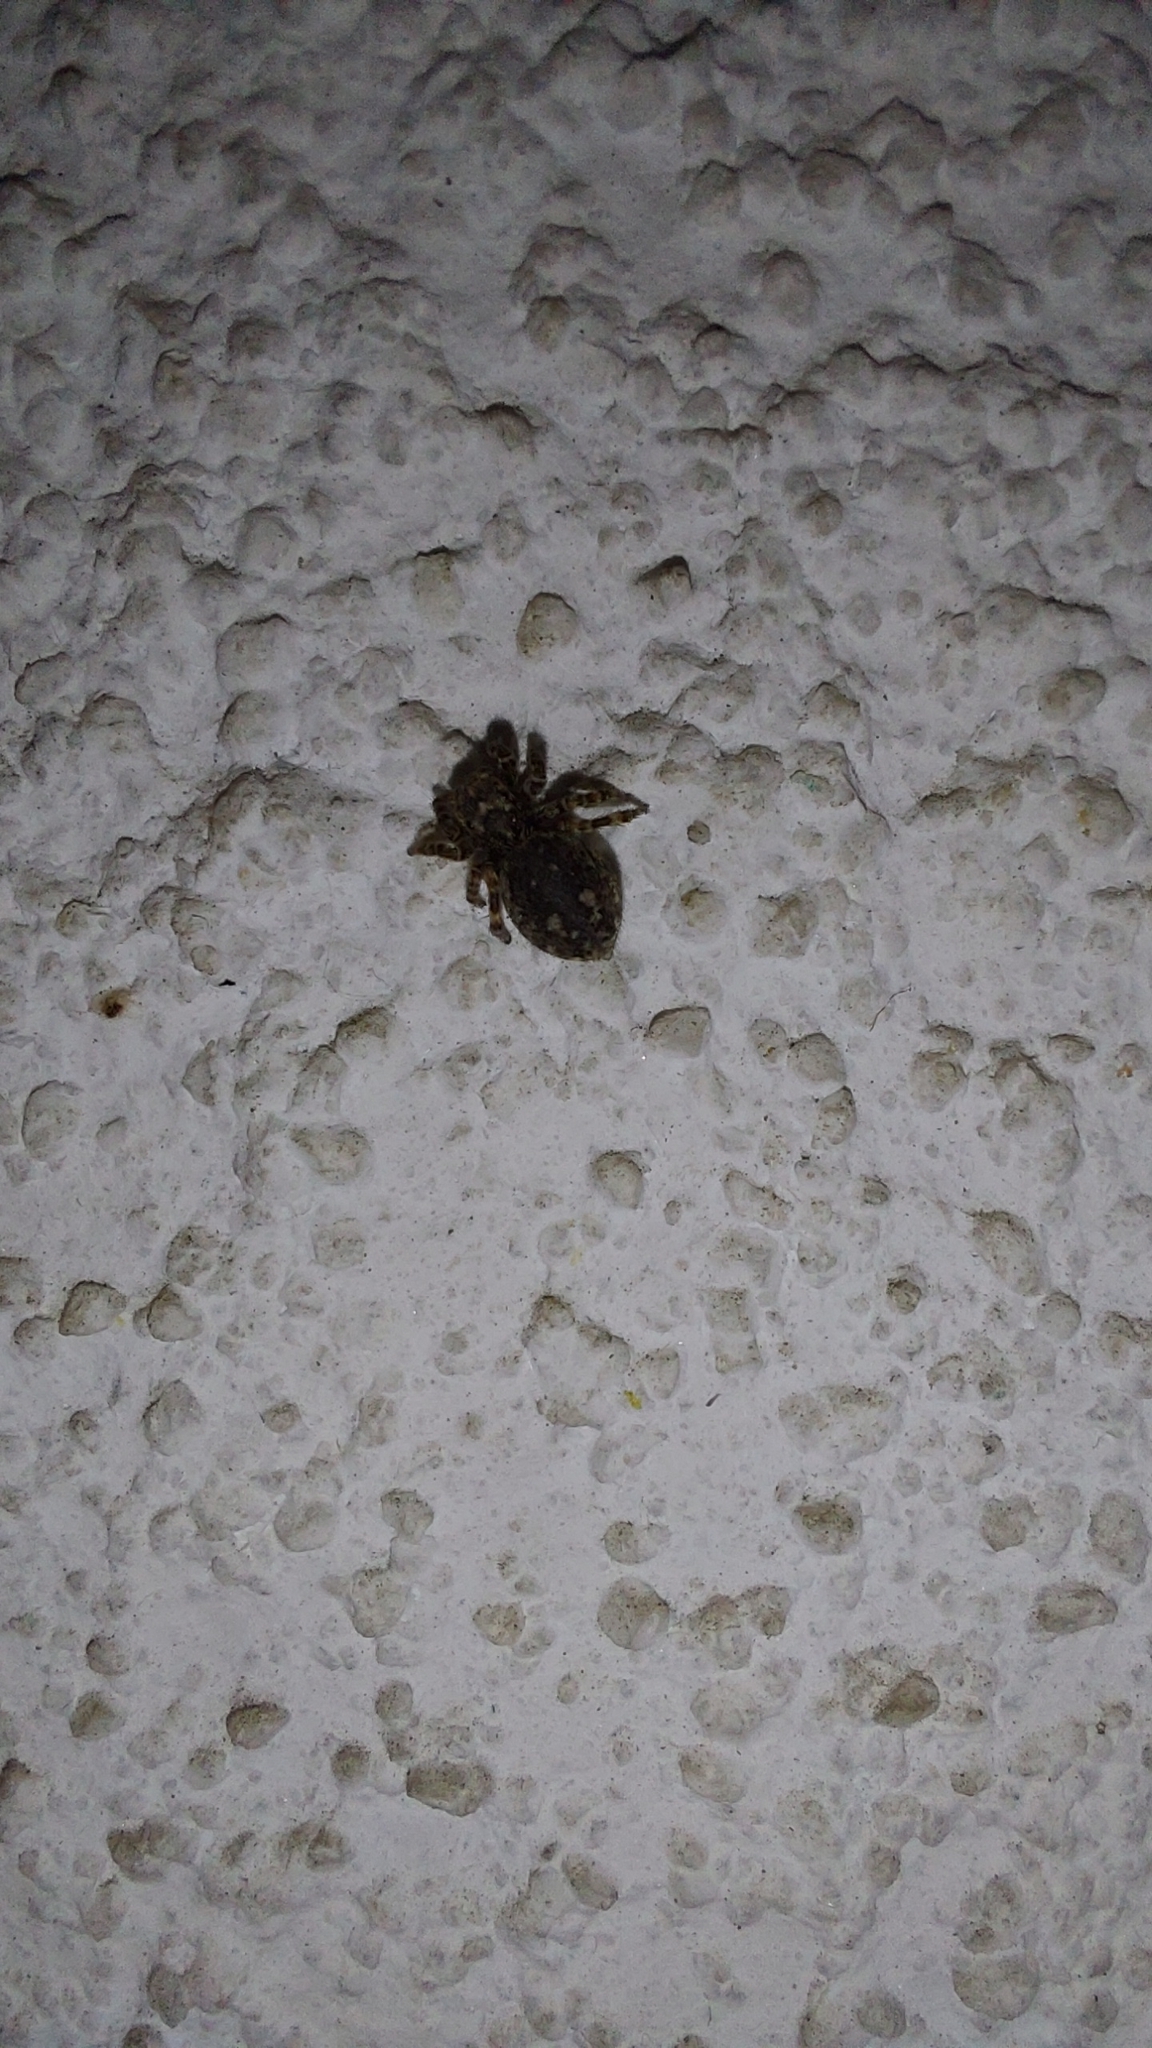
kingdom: Animalia
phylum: Arthropoda
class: Arachnida
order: Araneae
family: Salticidae
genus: Attulus
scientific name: Attulus pubescens
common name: Jumping spider
